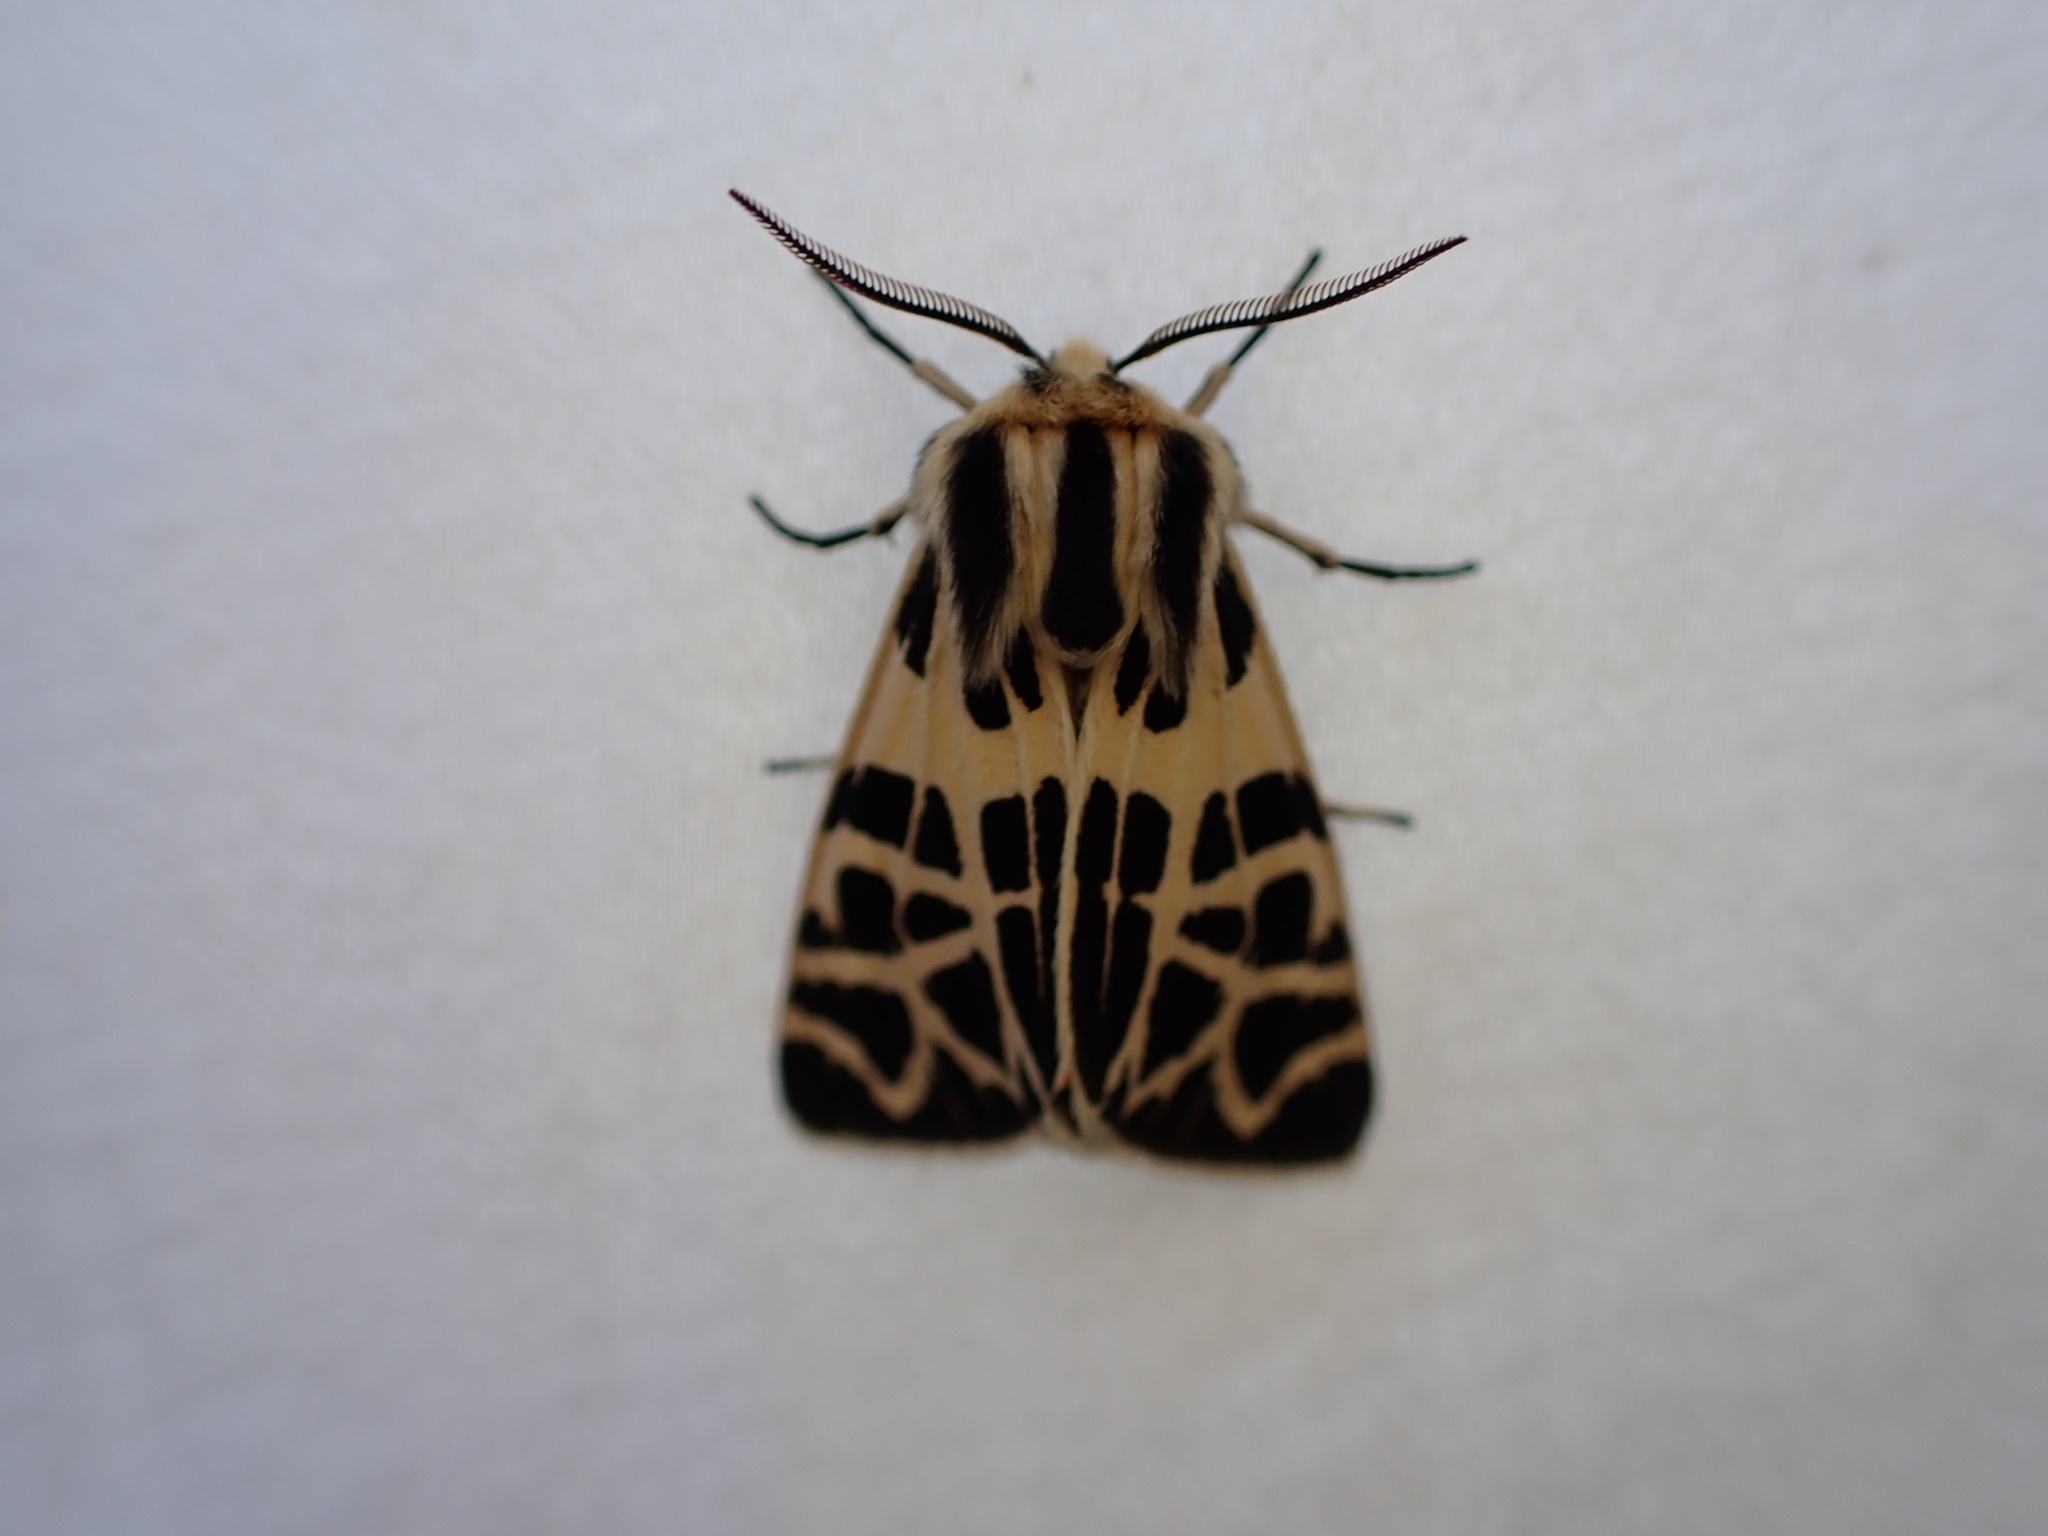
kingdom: Animalia
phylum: Arthropoda
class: Insecta
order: Lepidoptera
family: Erebidae
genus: Apantesis
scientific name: Apantesis
